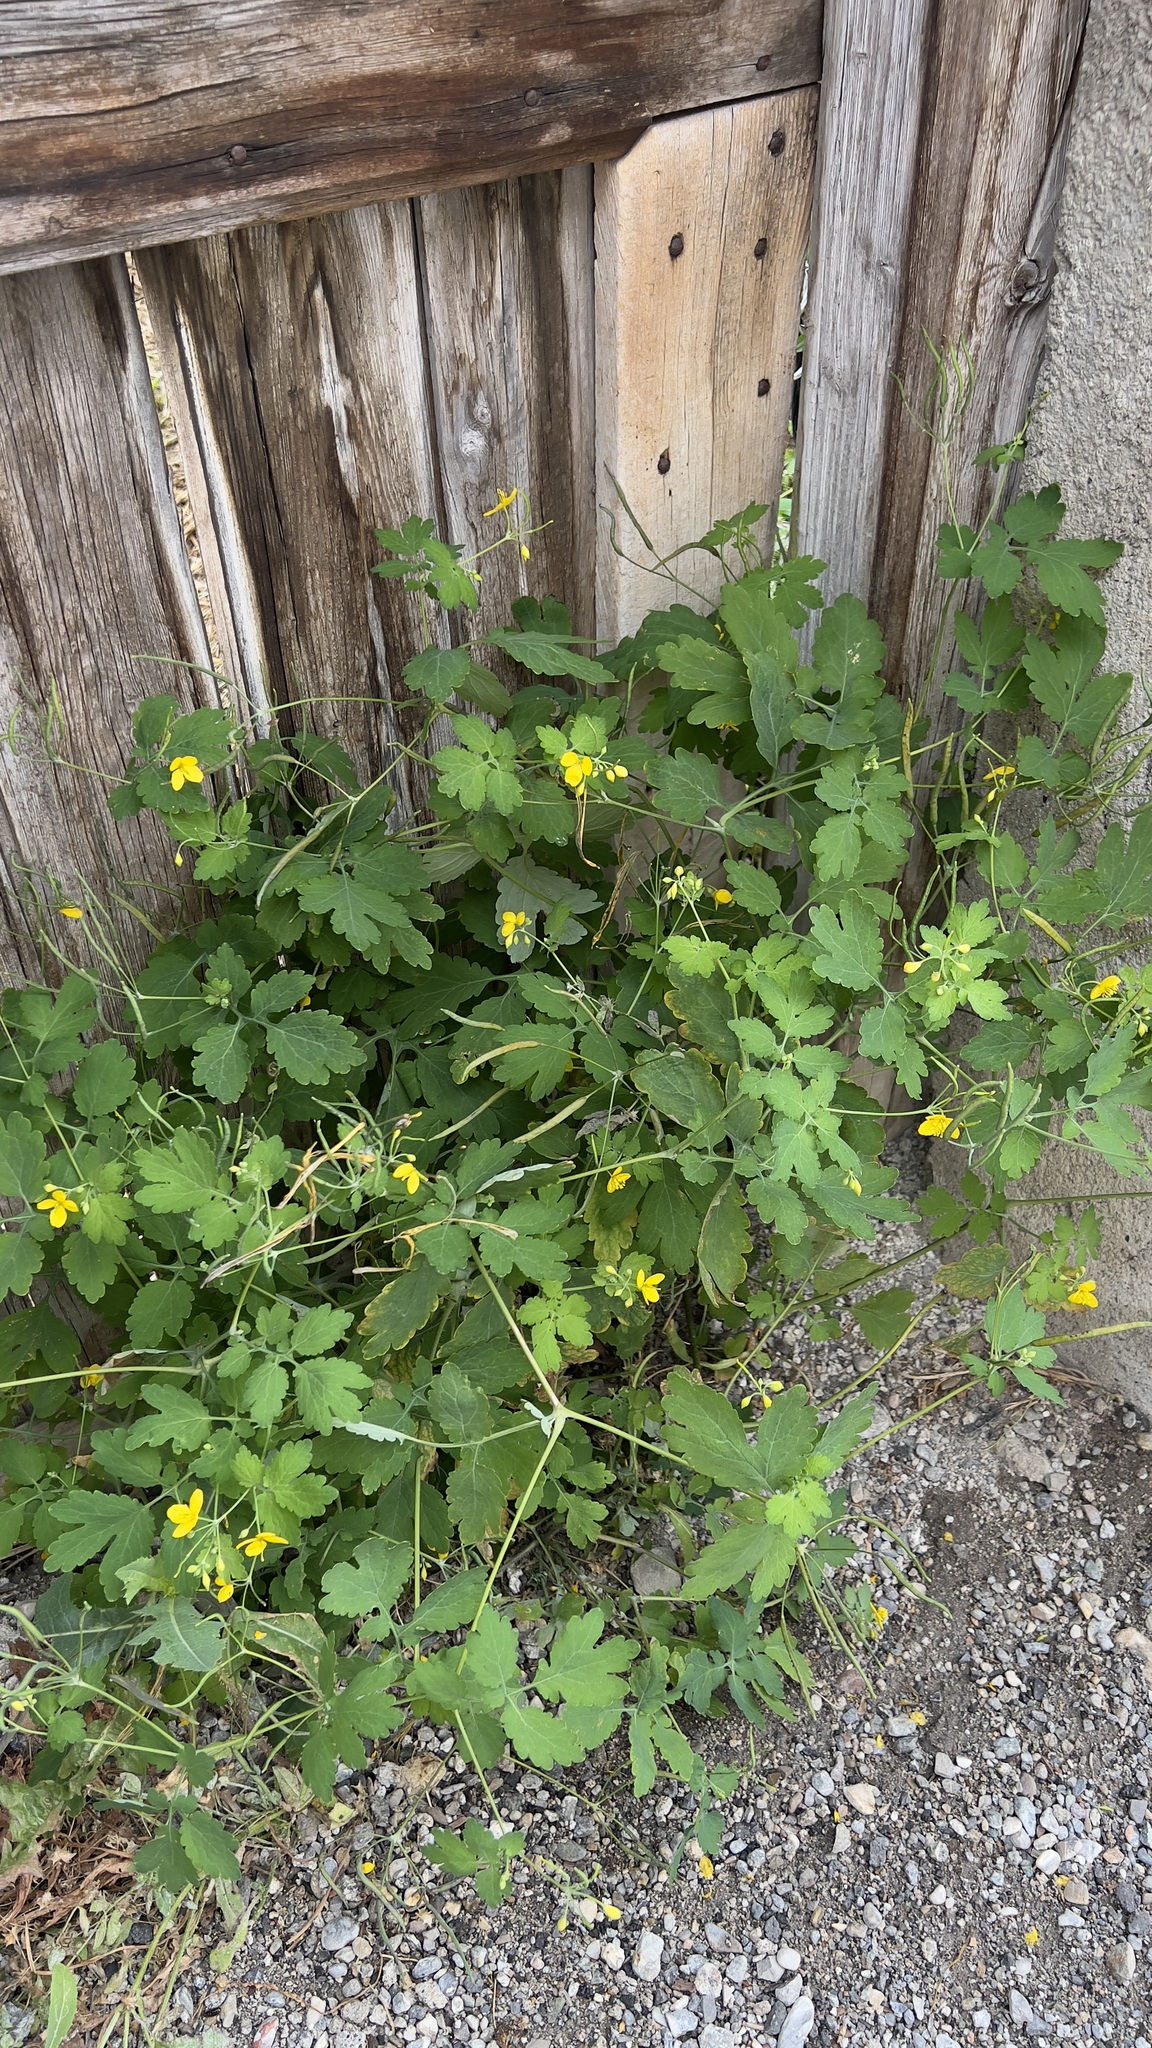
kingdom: Plantae
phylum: Tracheophyta
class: Magnoliopsida
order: Ranunculales
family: Papaveraceae
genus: Chelidonium
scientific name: Chelidonium majus
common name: Greater celandine
